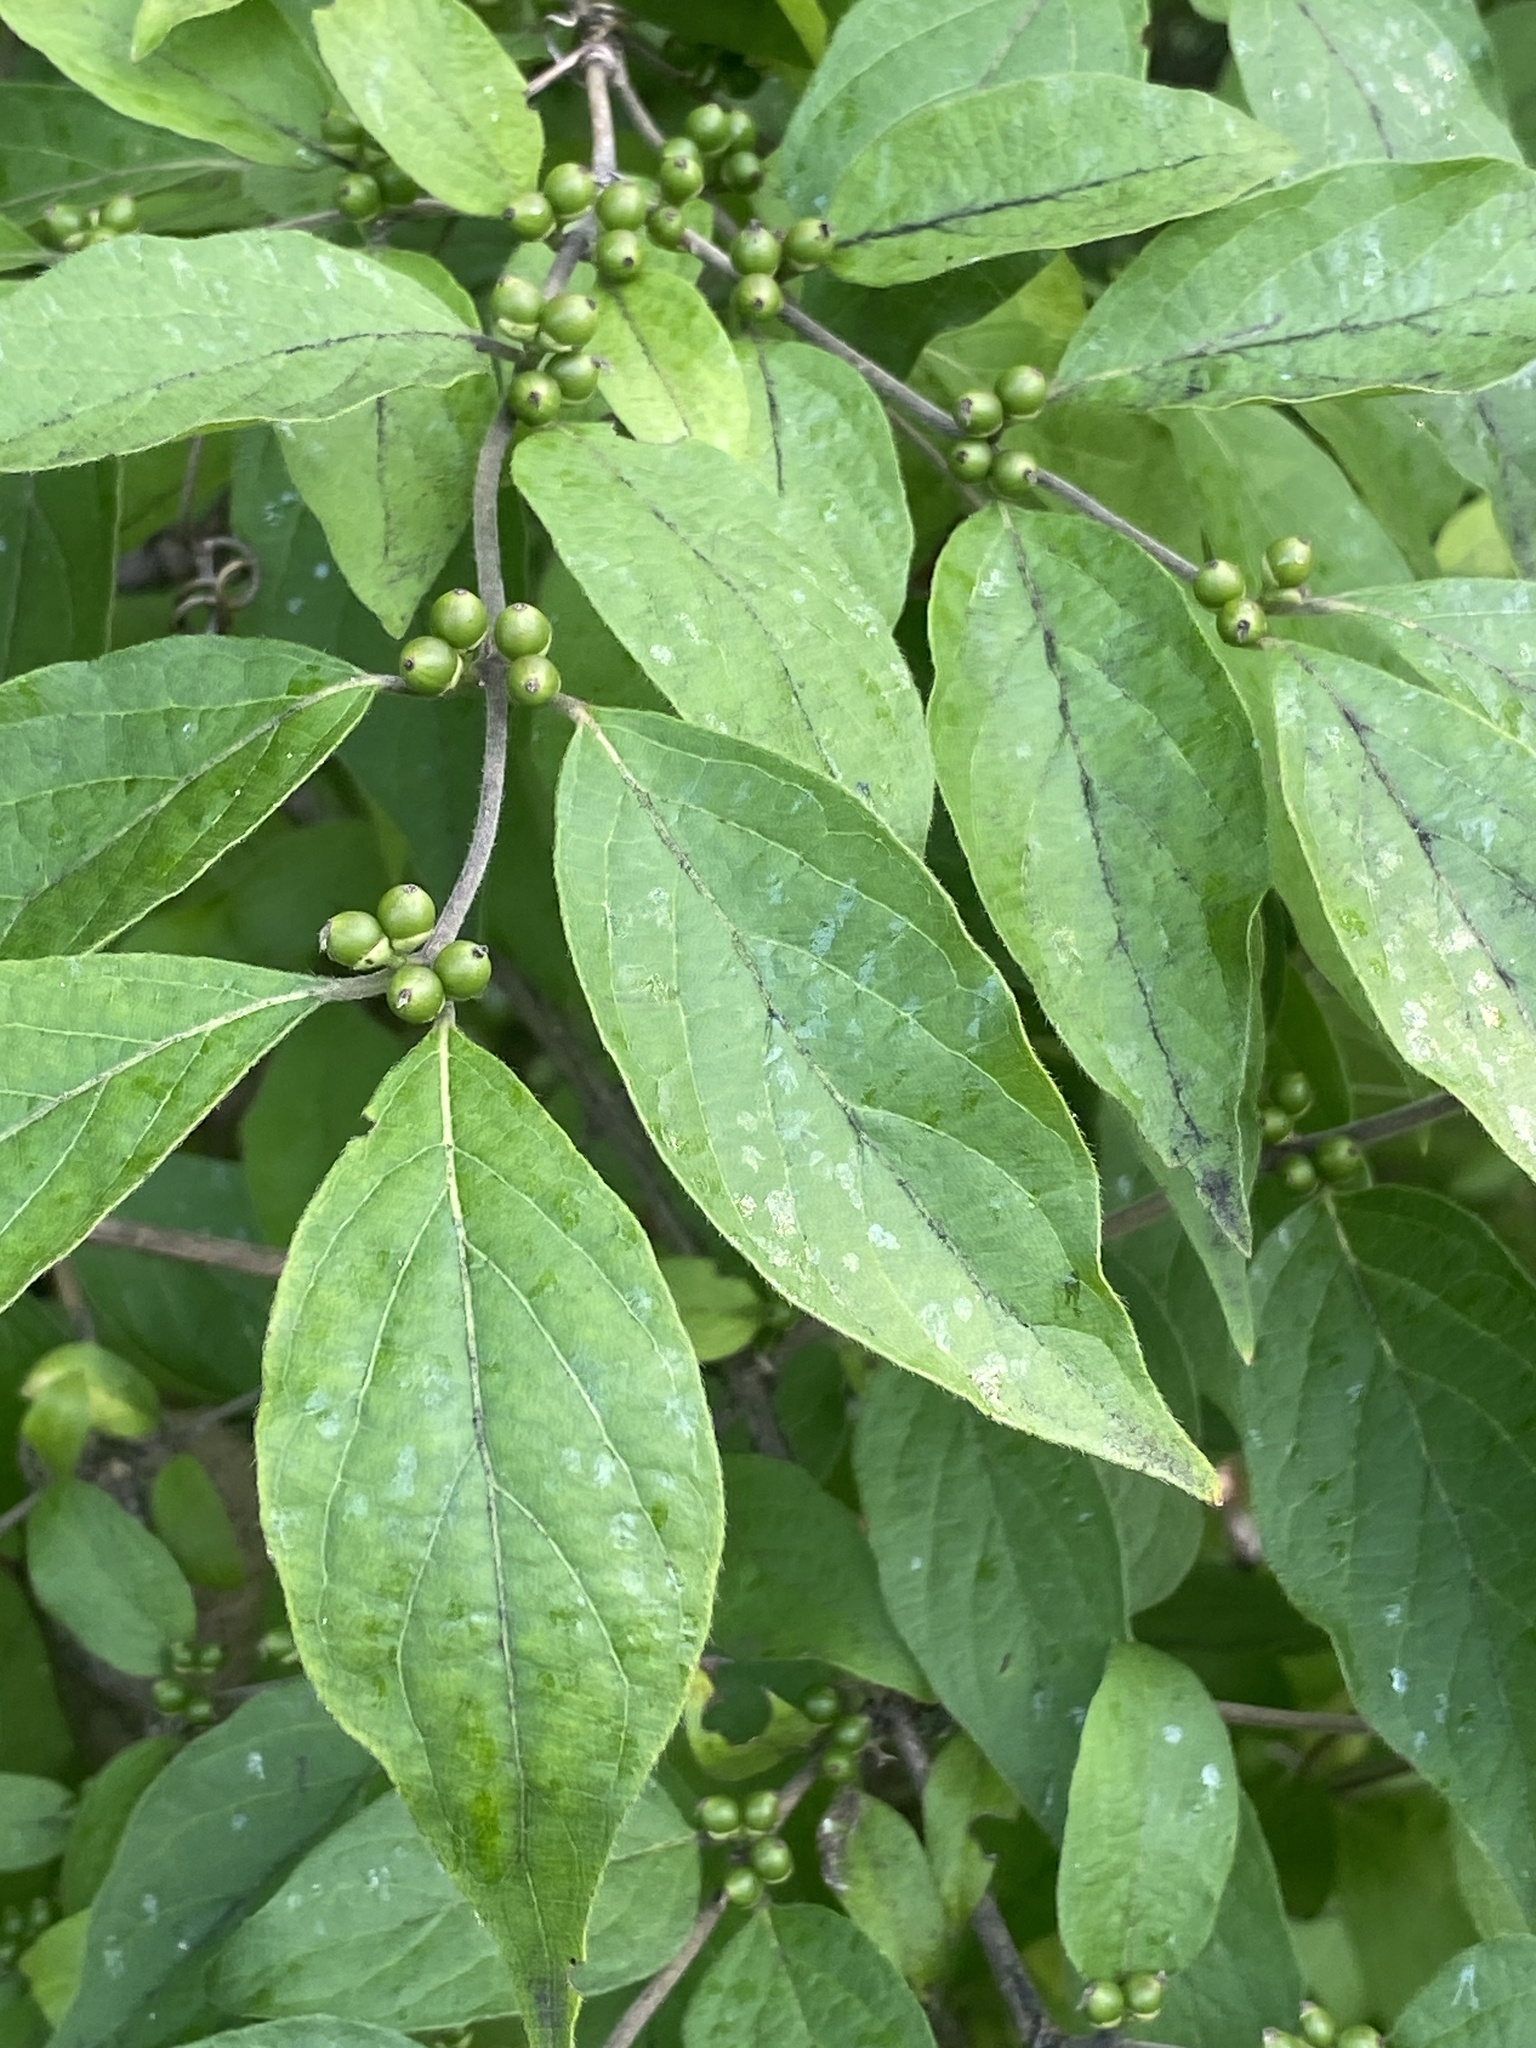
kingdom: Plantae
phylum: Tracheophyta
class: Magnoliopsida
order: Dipsacales
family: Caprifoliaceae
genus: Lonicera
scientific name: Lonicera maackii
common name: Amur honeysuckle
